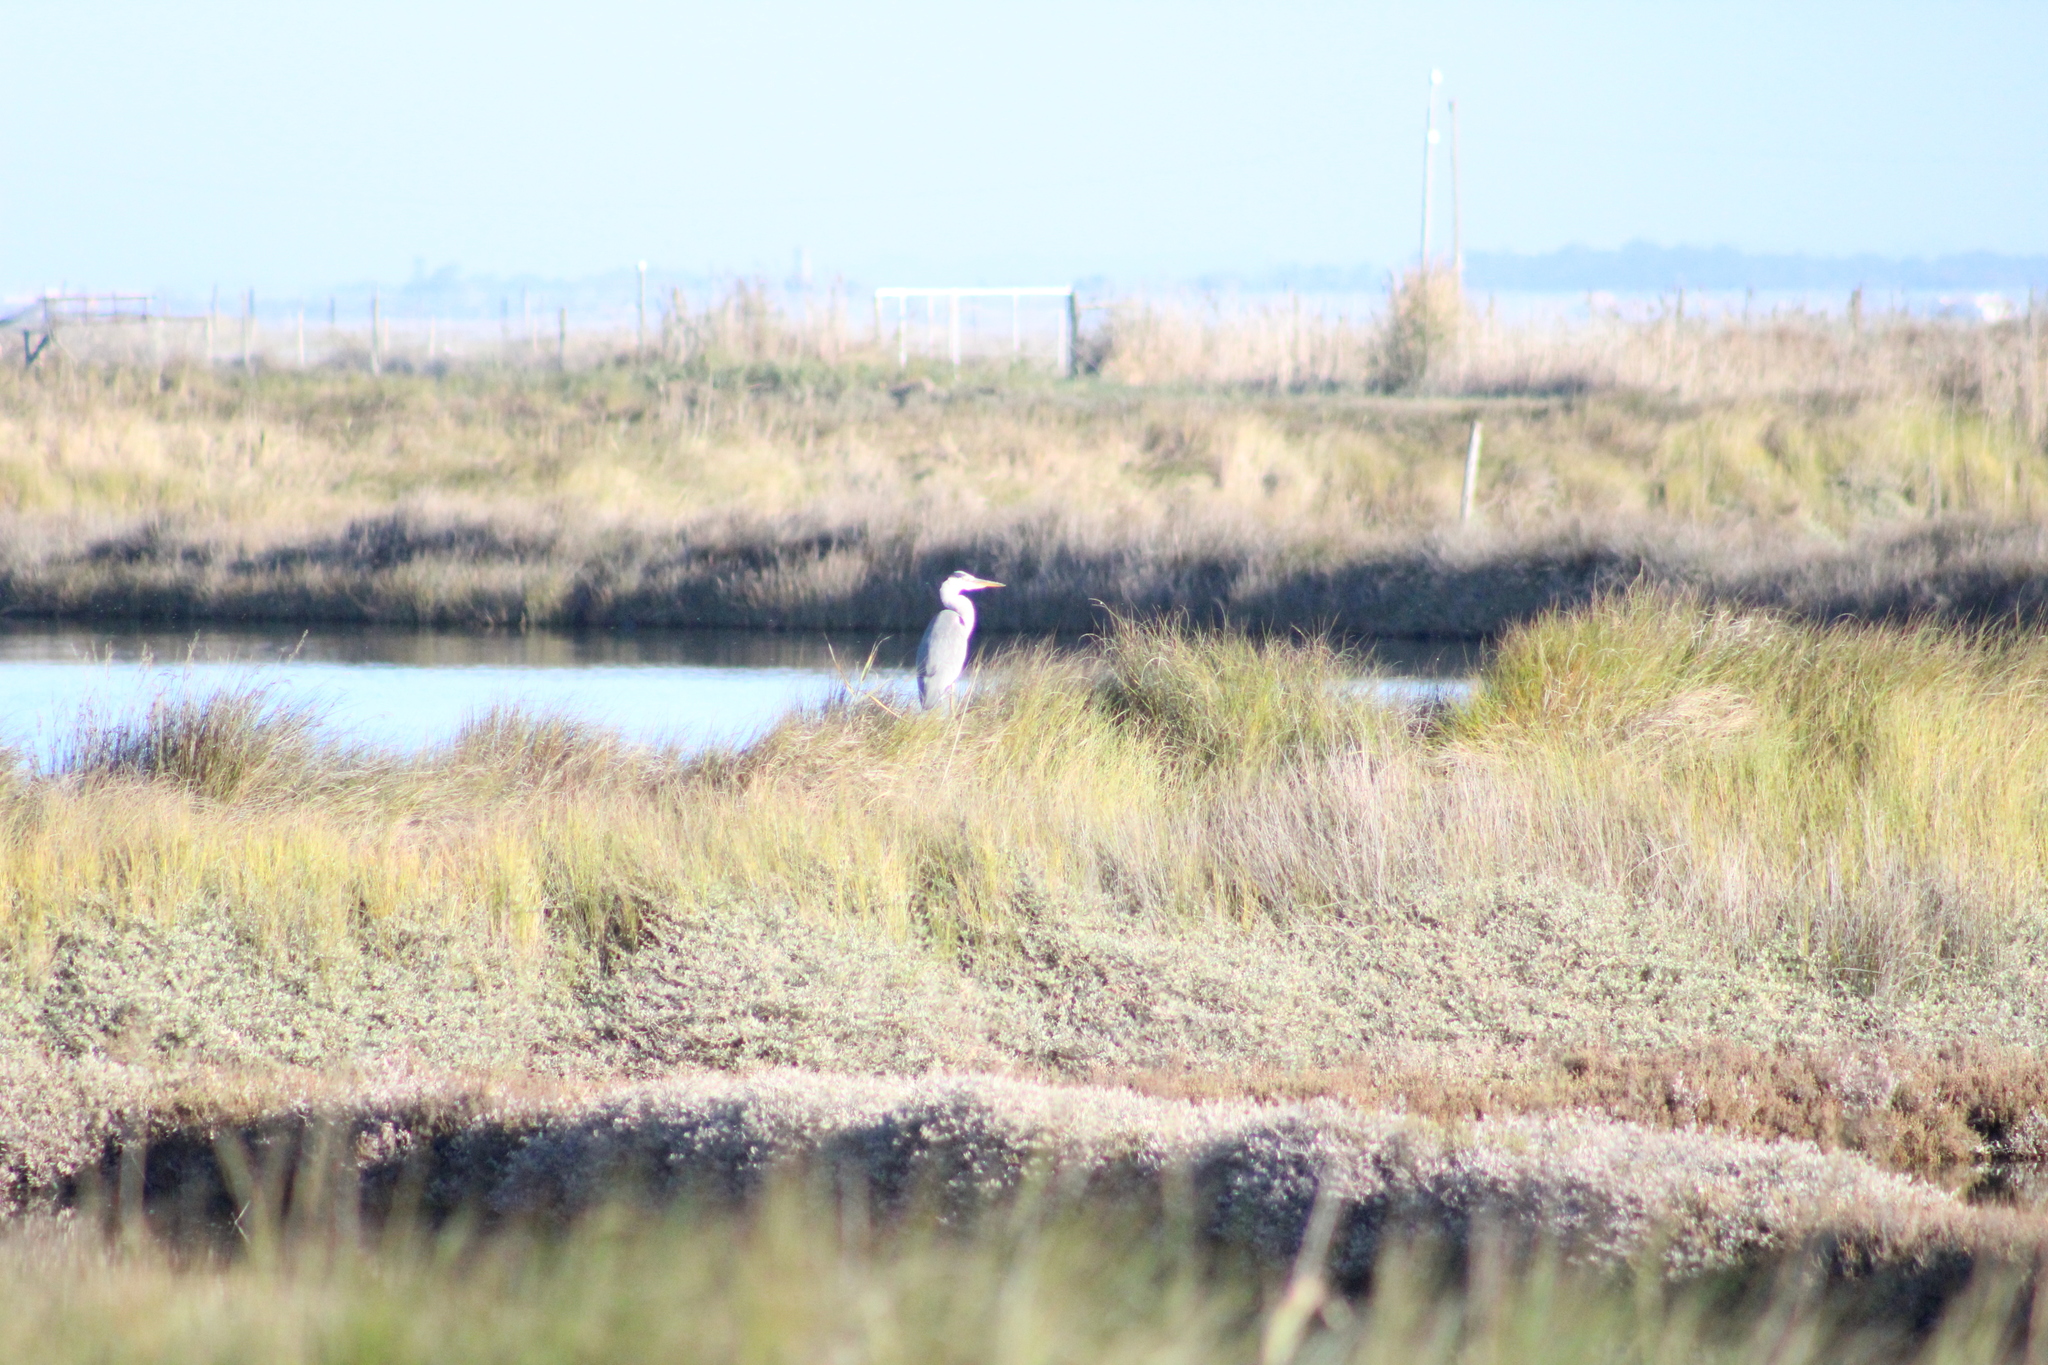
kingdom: Animalia
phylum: Chordata
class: Aves
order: Pelecaniformes
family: Ardeidae
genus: Ardea
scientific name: Ardea cinerea
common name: Grey heron
